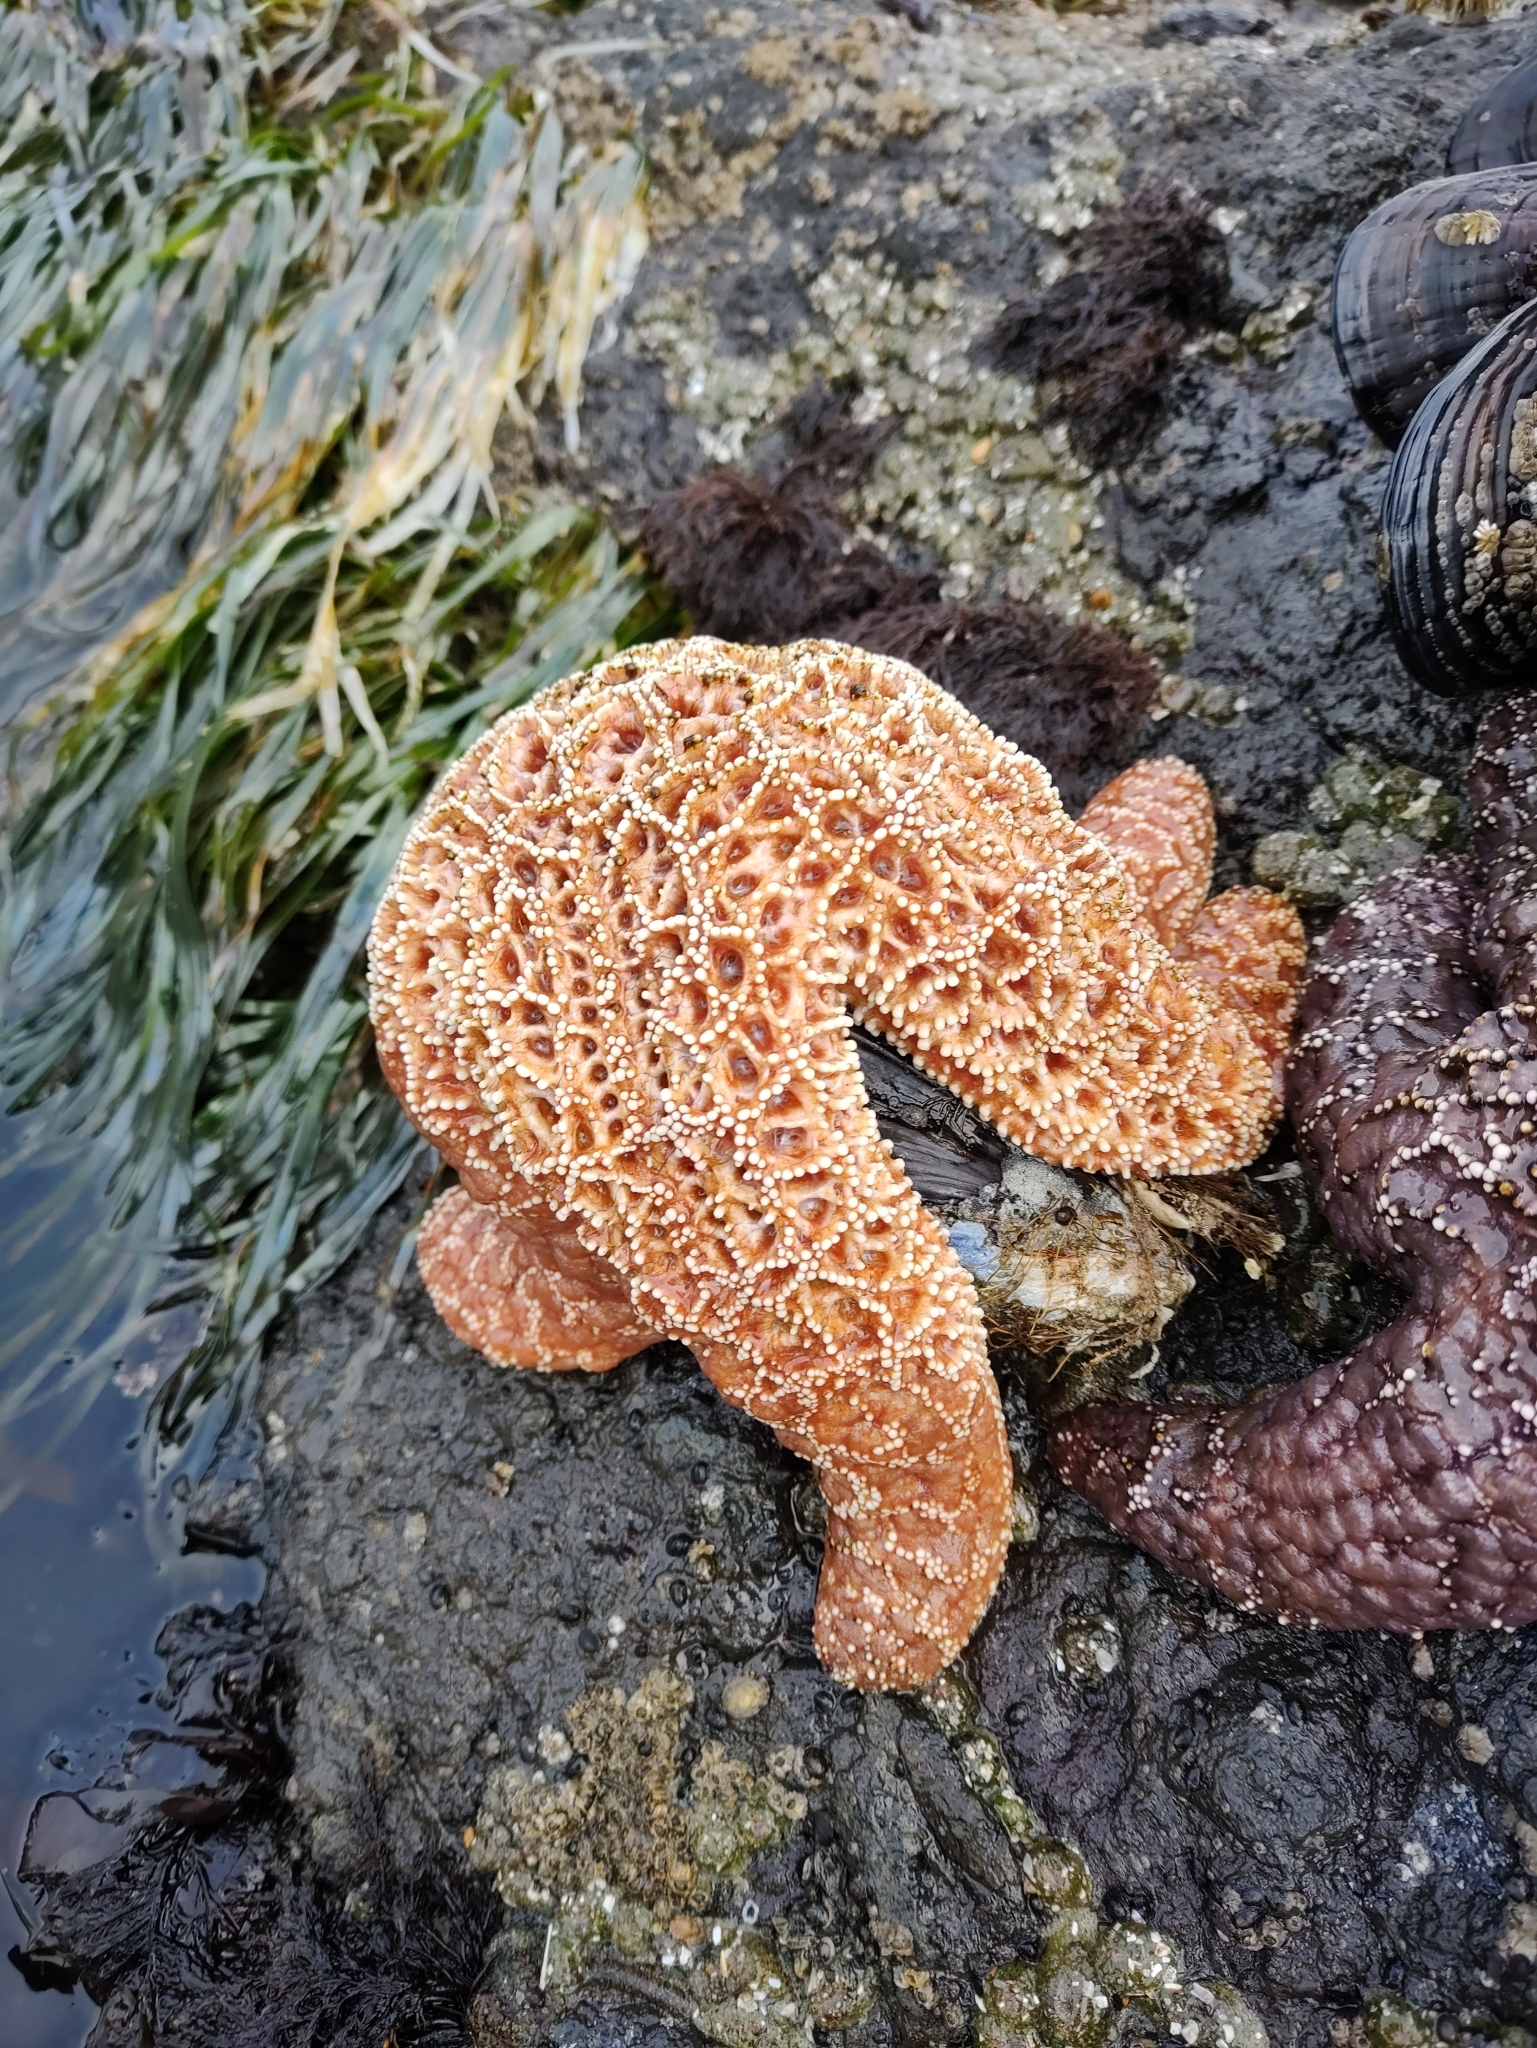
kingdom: Animalia
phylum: Echinodermata
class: Asteroidea
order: Forcipulatida
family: Asteriidae
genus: Pisaster
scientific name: Pisaster ochraceus
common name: Ochre stars
